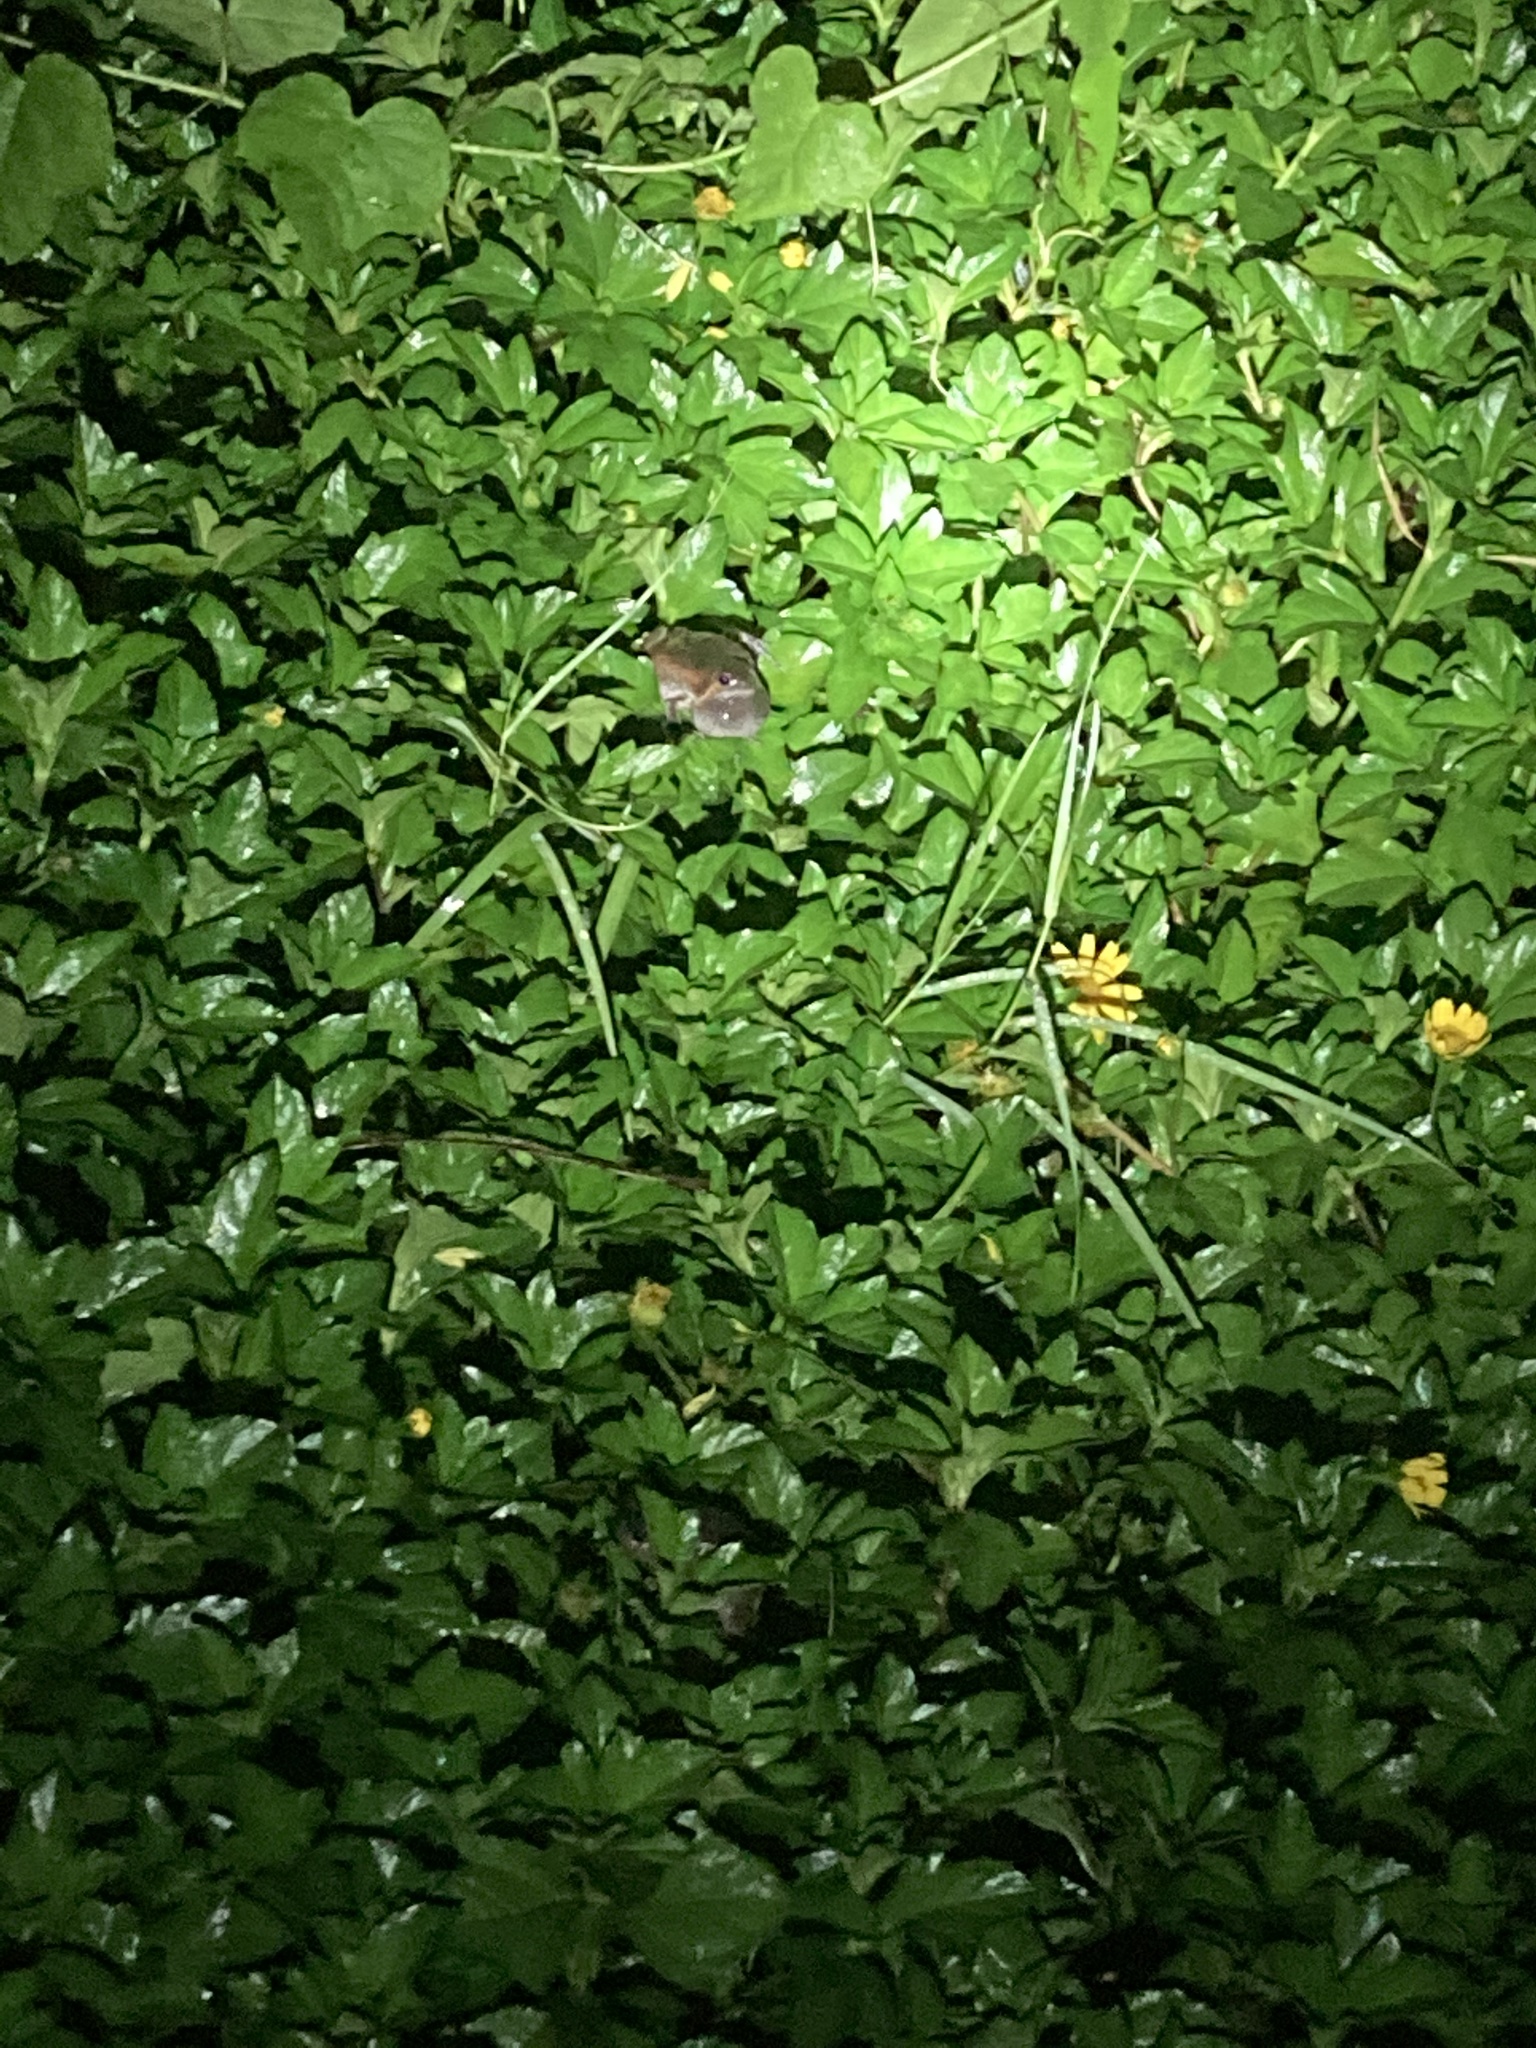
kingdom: Animalia
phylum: Chordata
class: Amphibia
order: Anura
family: Microhylidae
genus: Uperodon
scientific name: Uperodon taprobanicus
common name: Ceylon kaloula
